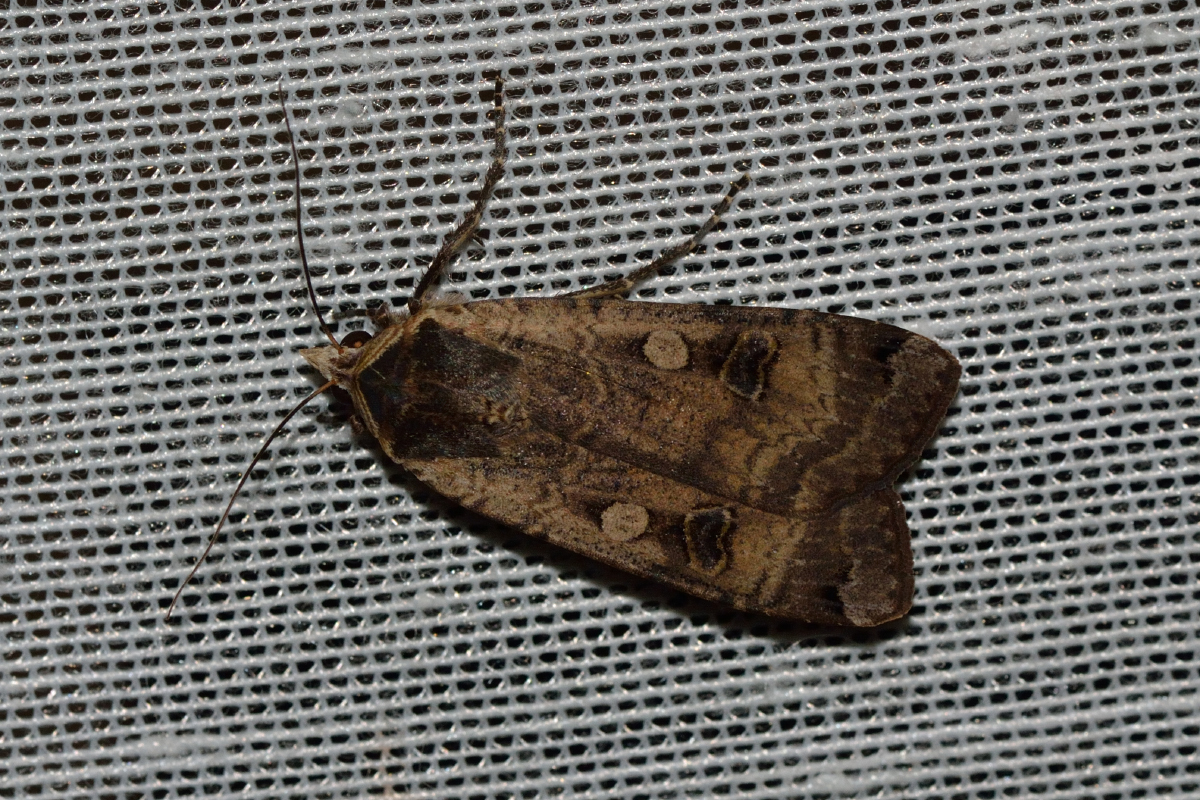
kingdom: Animalia
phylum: Arthropoda
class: Insecta
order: Lepidoptera
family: Noctuidae
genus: Noctua
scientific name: Noctua pronuba
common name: Large yellow underwing
